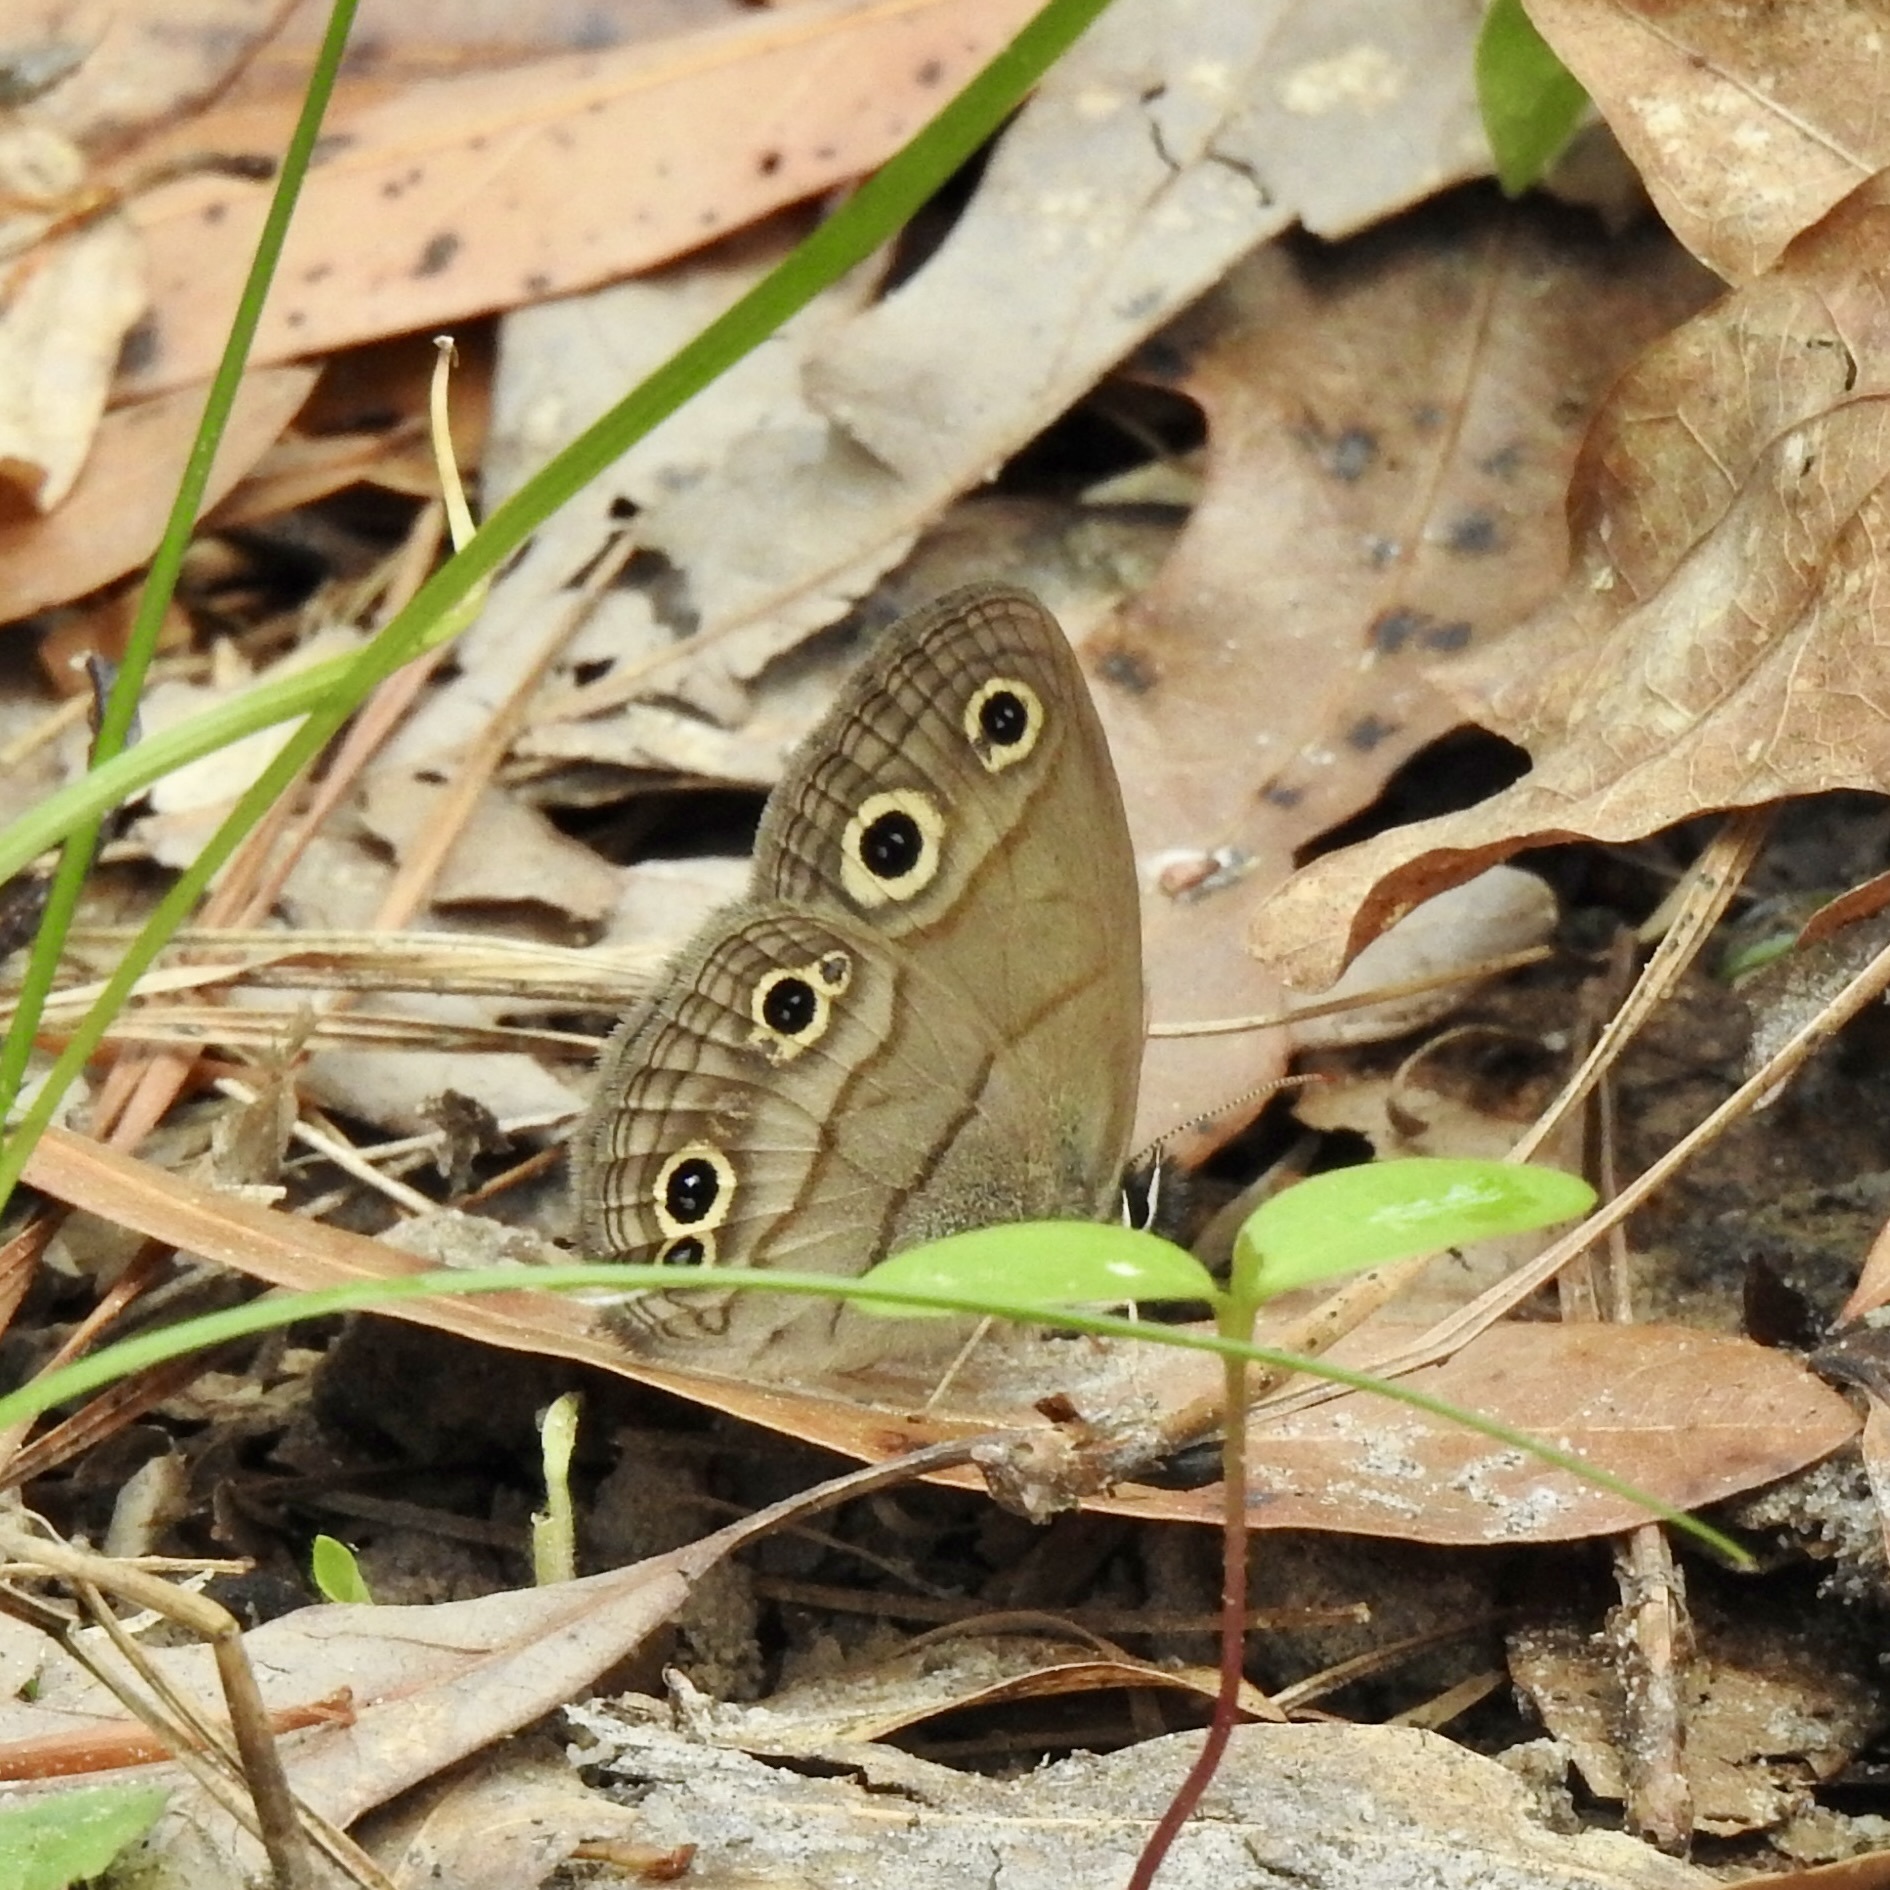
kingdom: Animalia
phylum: Arthropoda
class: Insecta
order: Lepidoptera
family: Nymphalidae
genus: Euptychia
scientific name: Euptychia cymela
